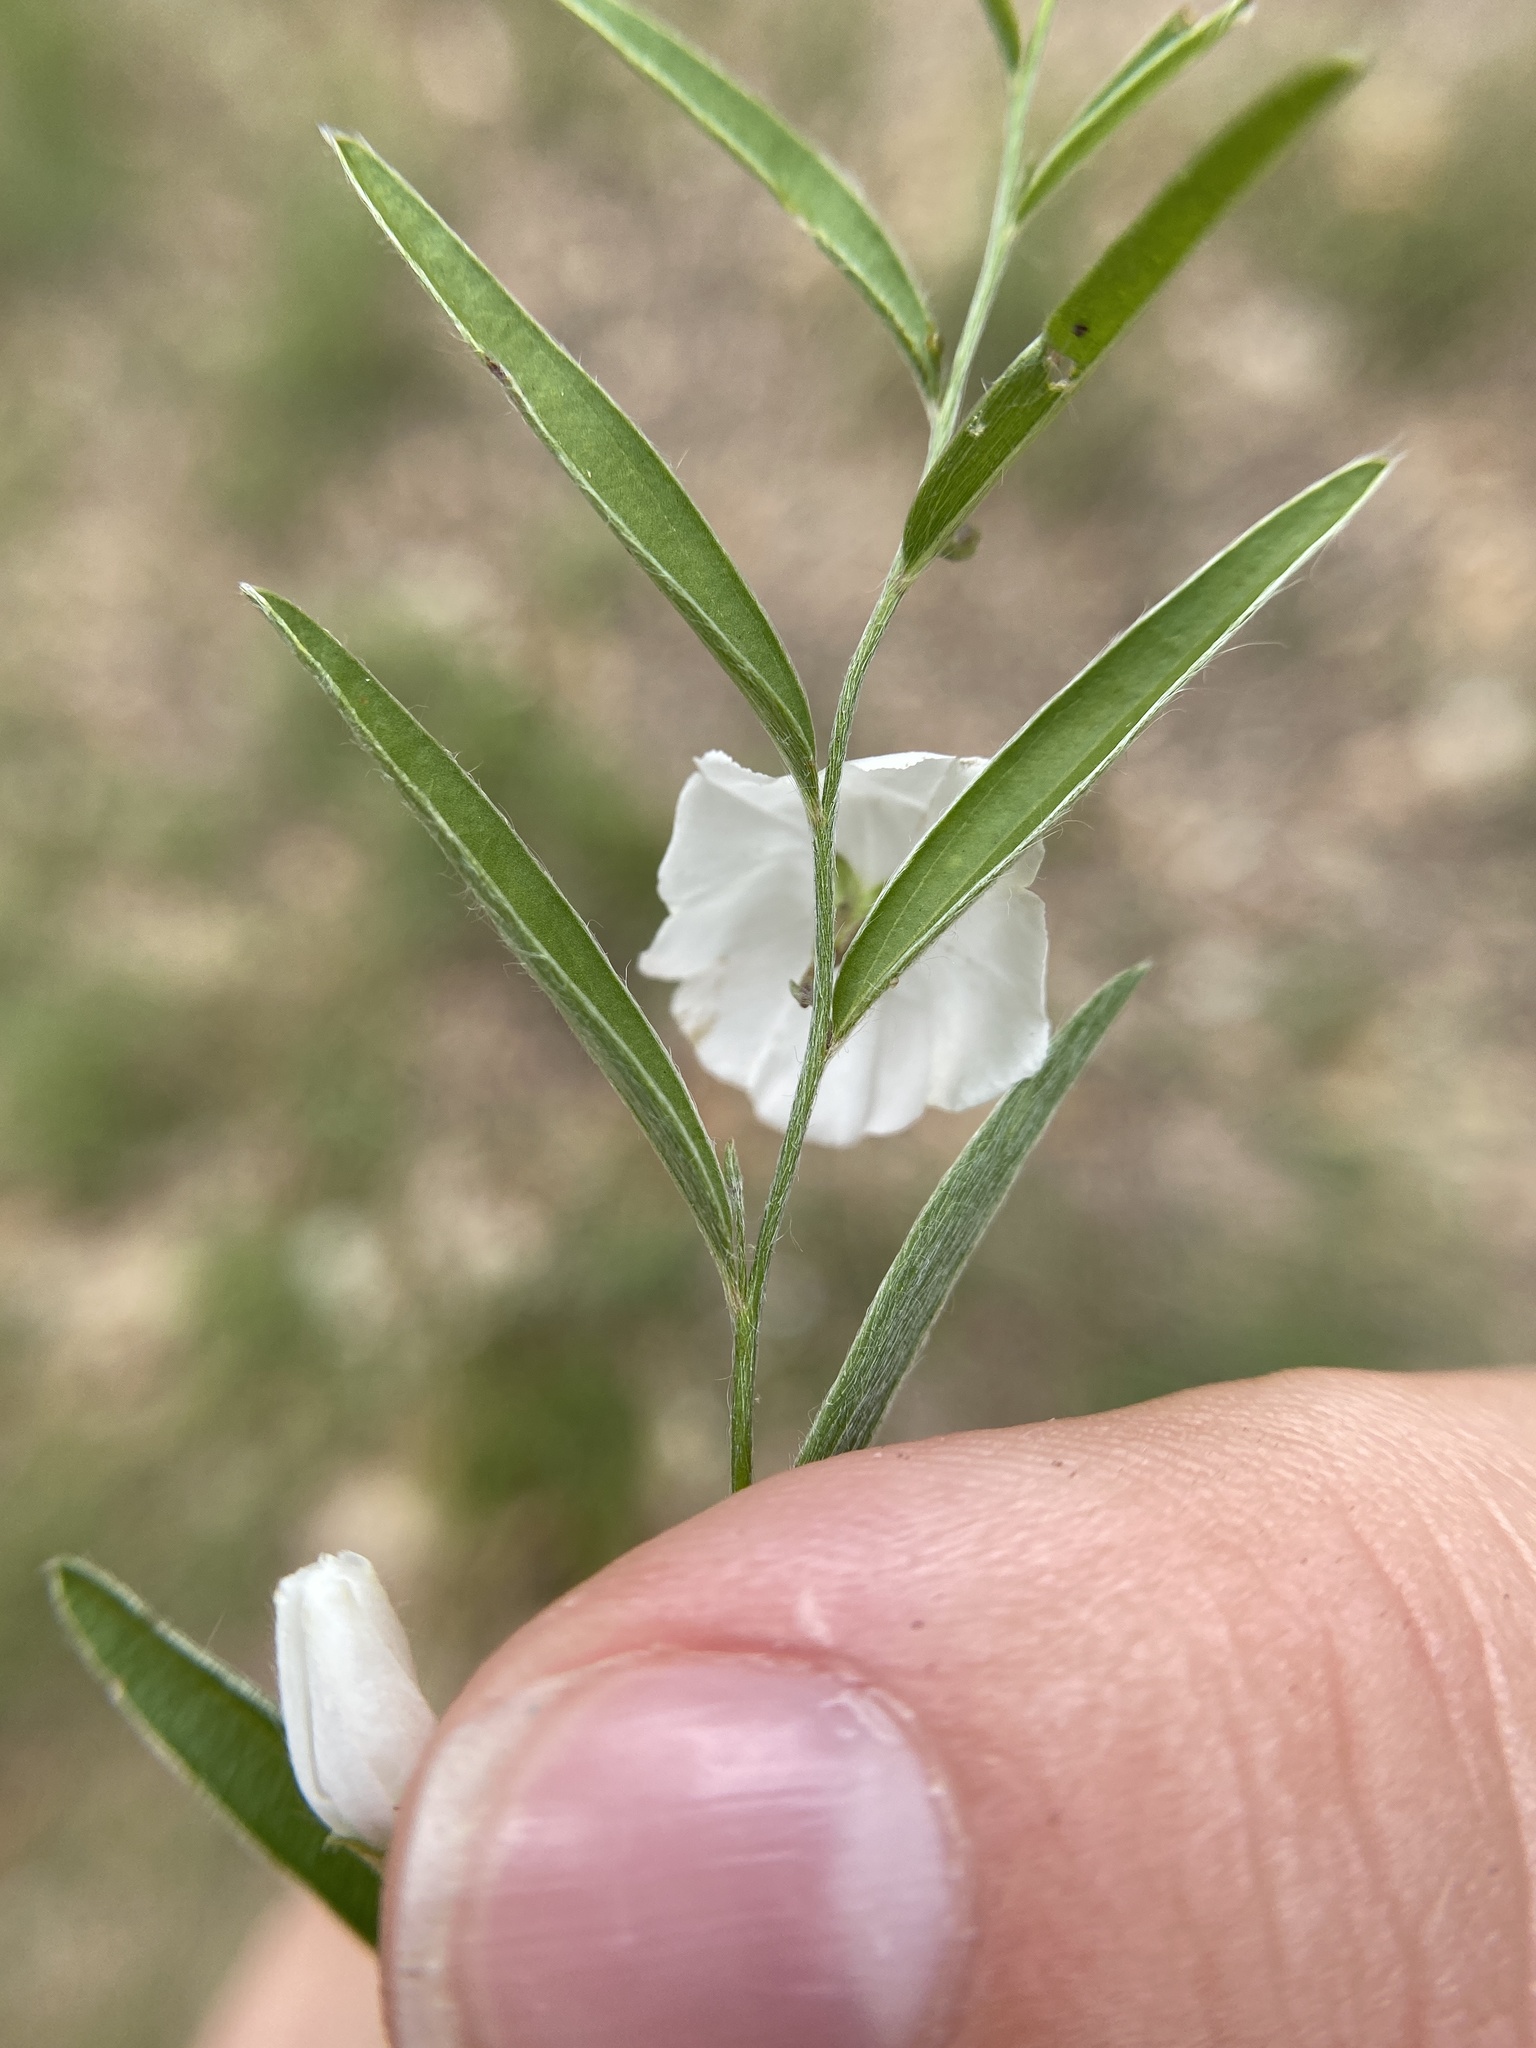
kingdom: Plantae
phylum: Tracheophyta
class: Magnoliopsida
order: Solanales
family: Convolvulaceae
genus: Evolvulus
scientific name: Evolvulus sericeus
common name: Blue dots
